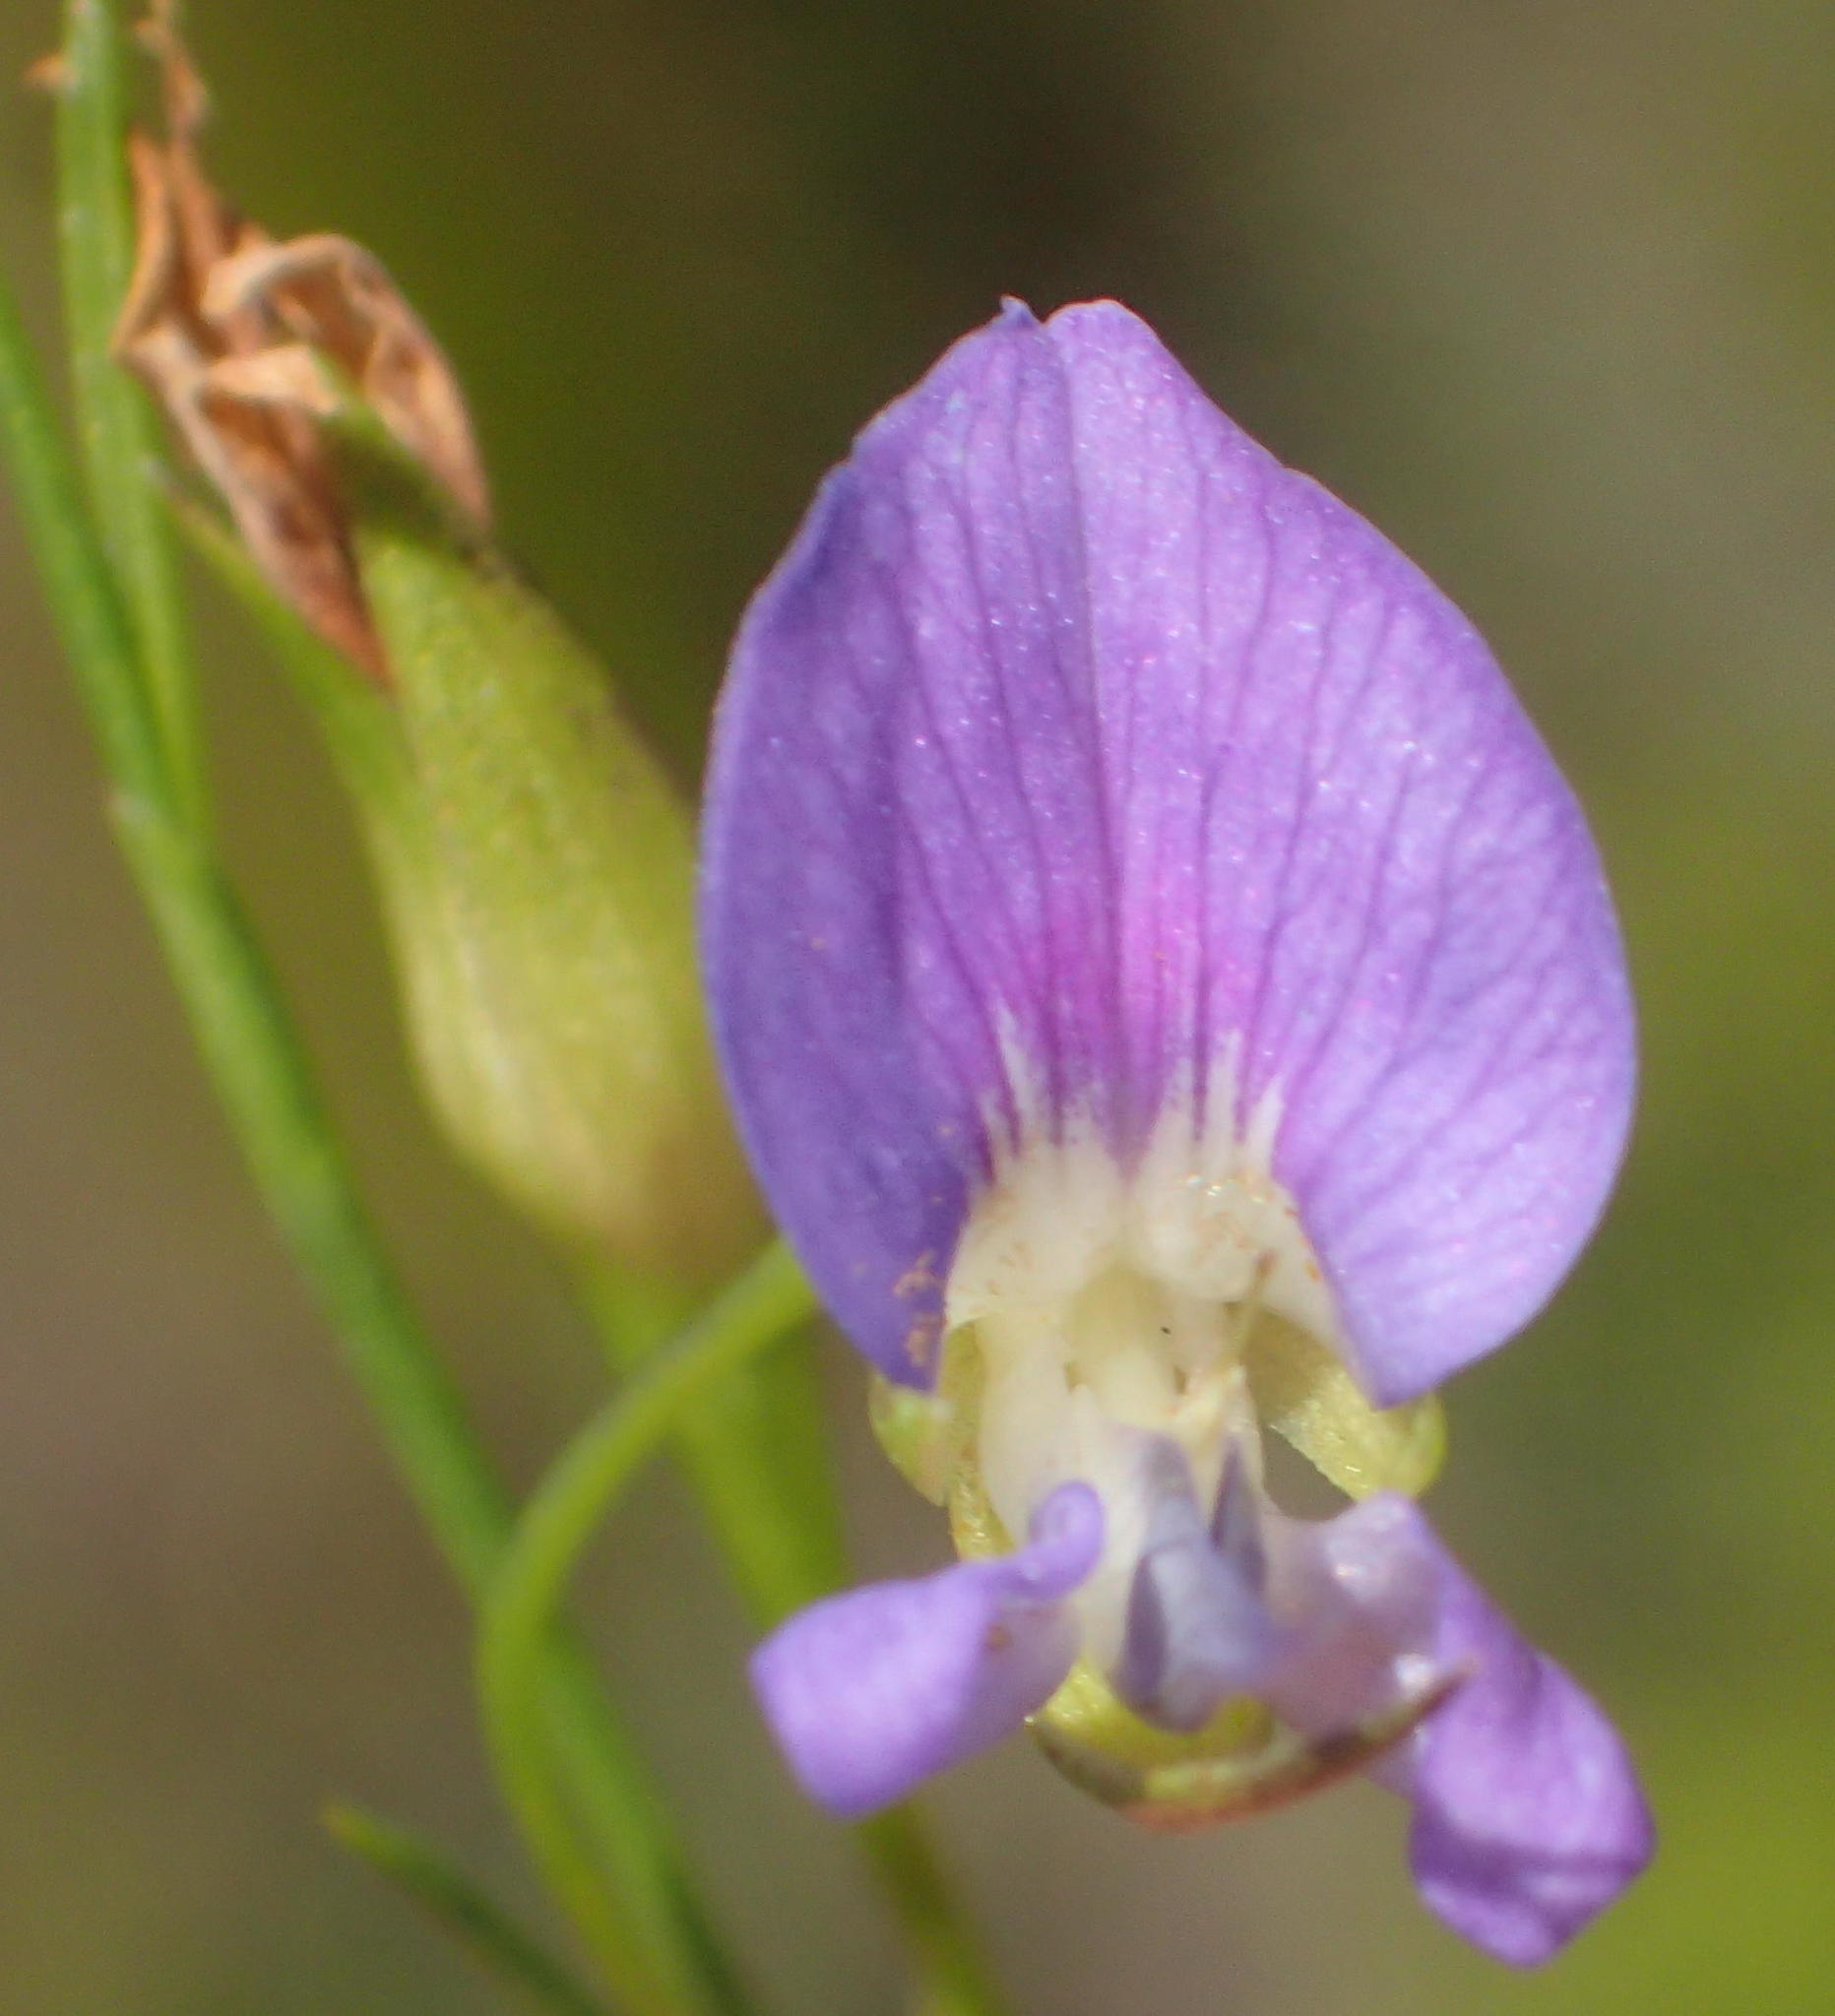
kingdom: Plantae
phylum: Tracheophyta
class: Magnoliopsida
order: Fabales
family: Fabaceae
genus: Psoralea
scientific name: Psoralea trullata
